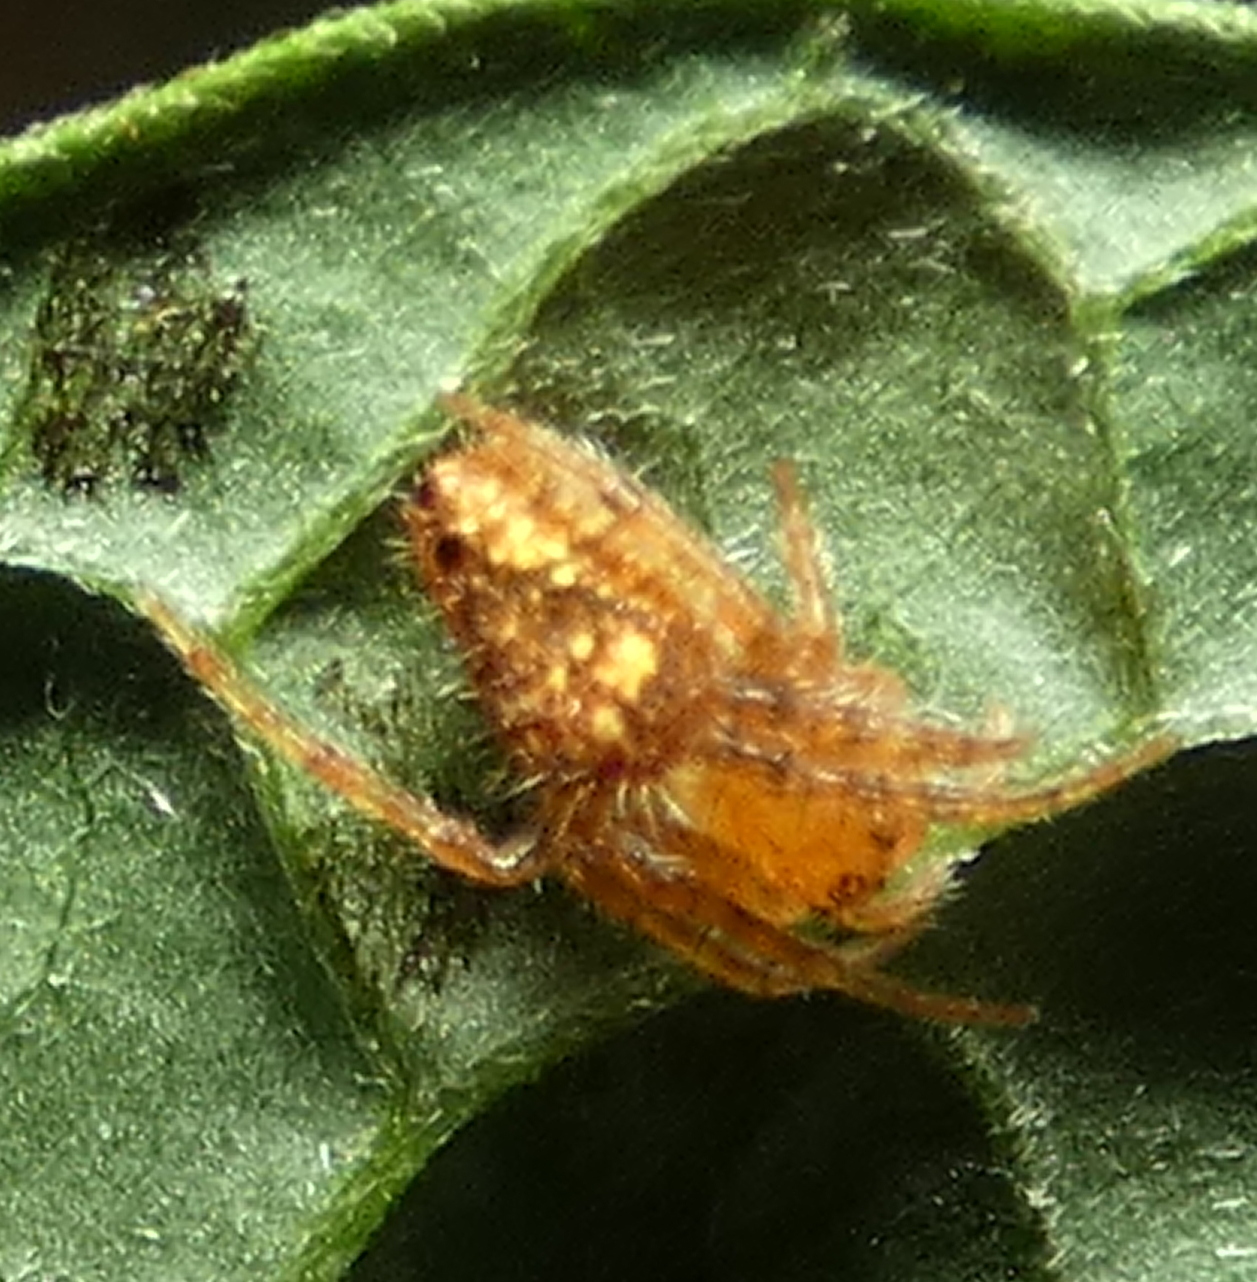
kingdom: Animalia
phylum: Arthropoda
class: Arachnida
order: Araneae
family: Araneidae
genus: Eriophora
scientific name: Eriophora edax
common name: Orb weavers
